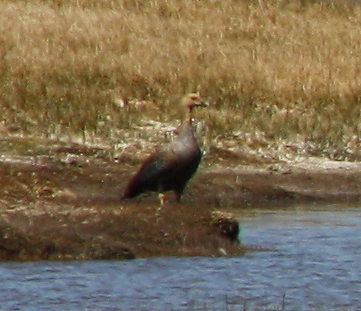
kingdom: Animalia
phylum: Chordata
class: Aves
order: Anseriformes
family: Anatidae
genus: Chloephaga
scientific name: Chloephaga picta
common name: Upland goose
